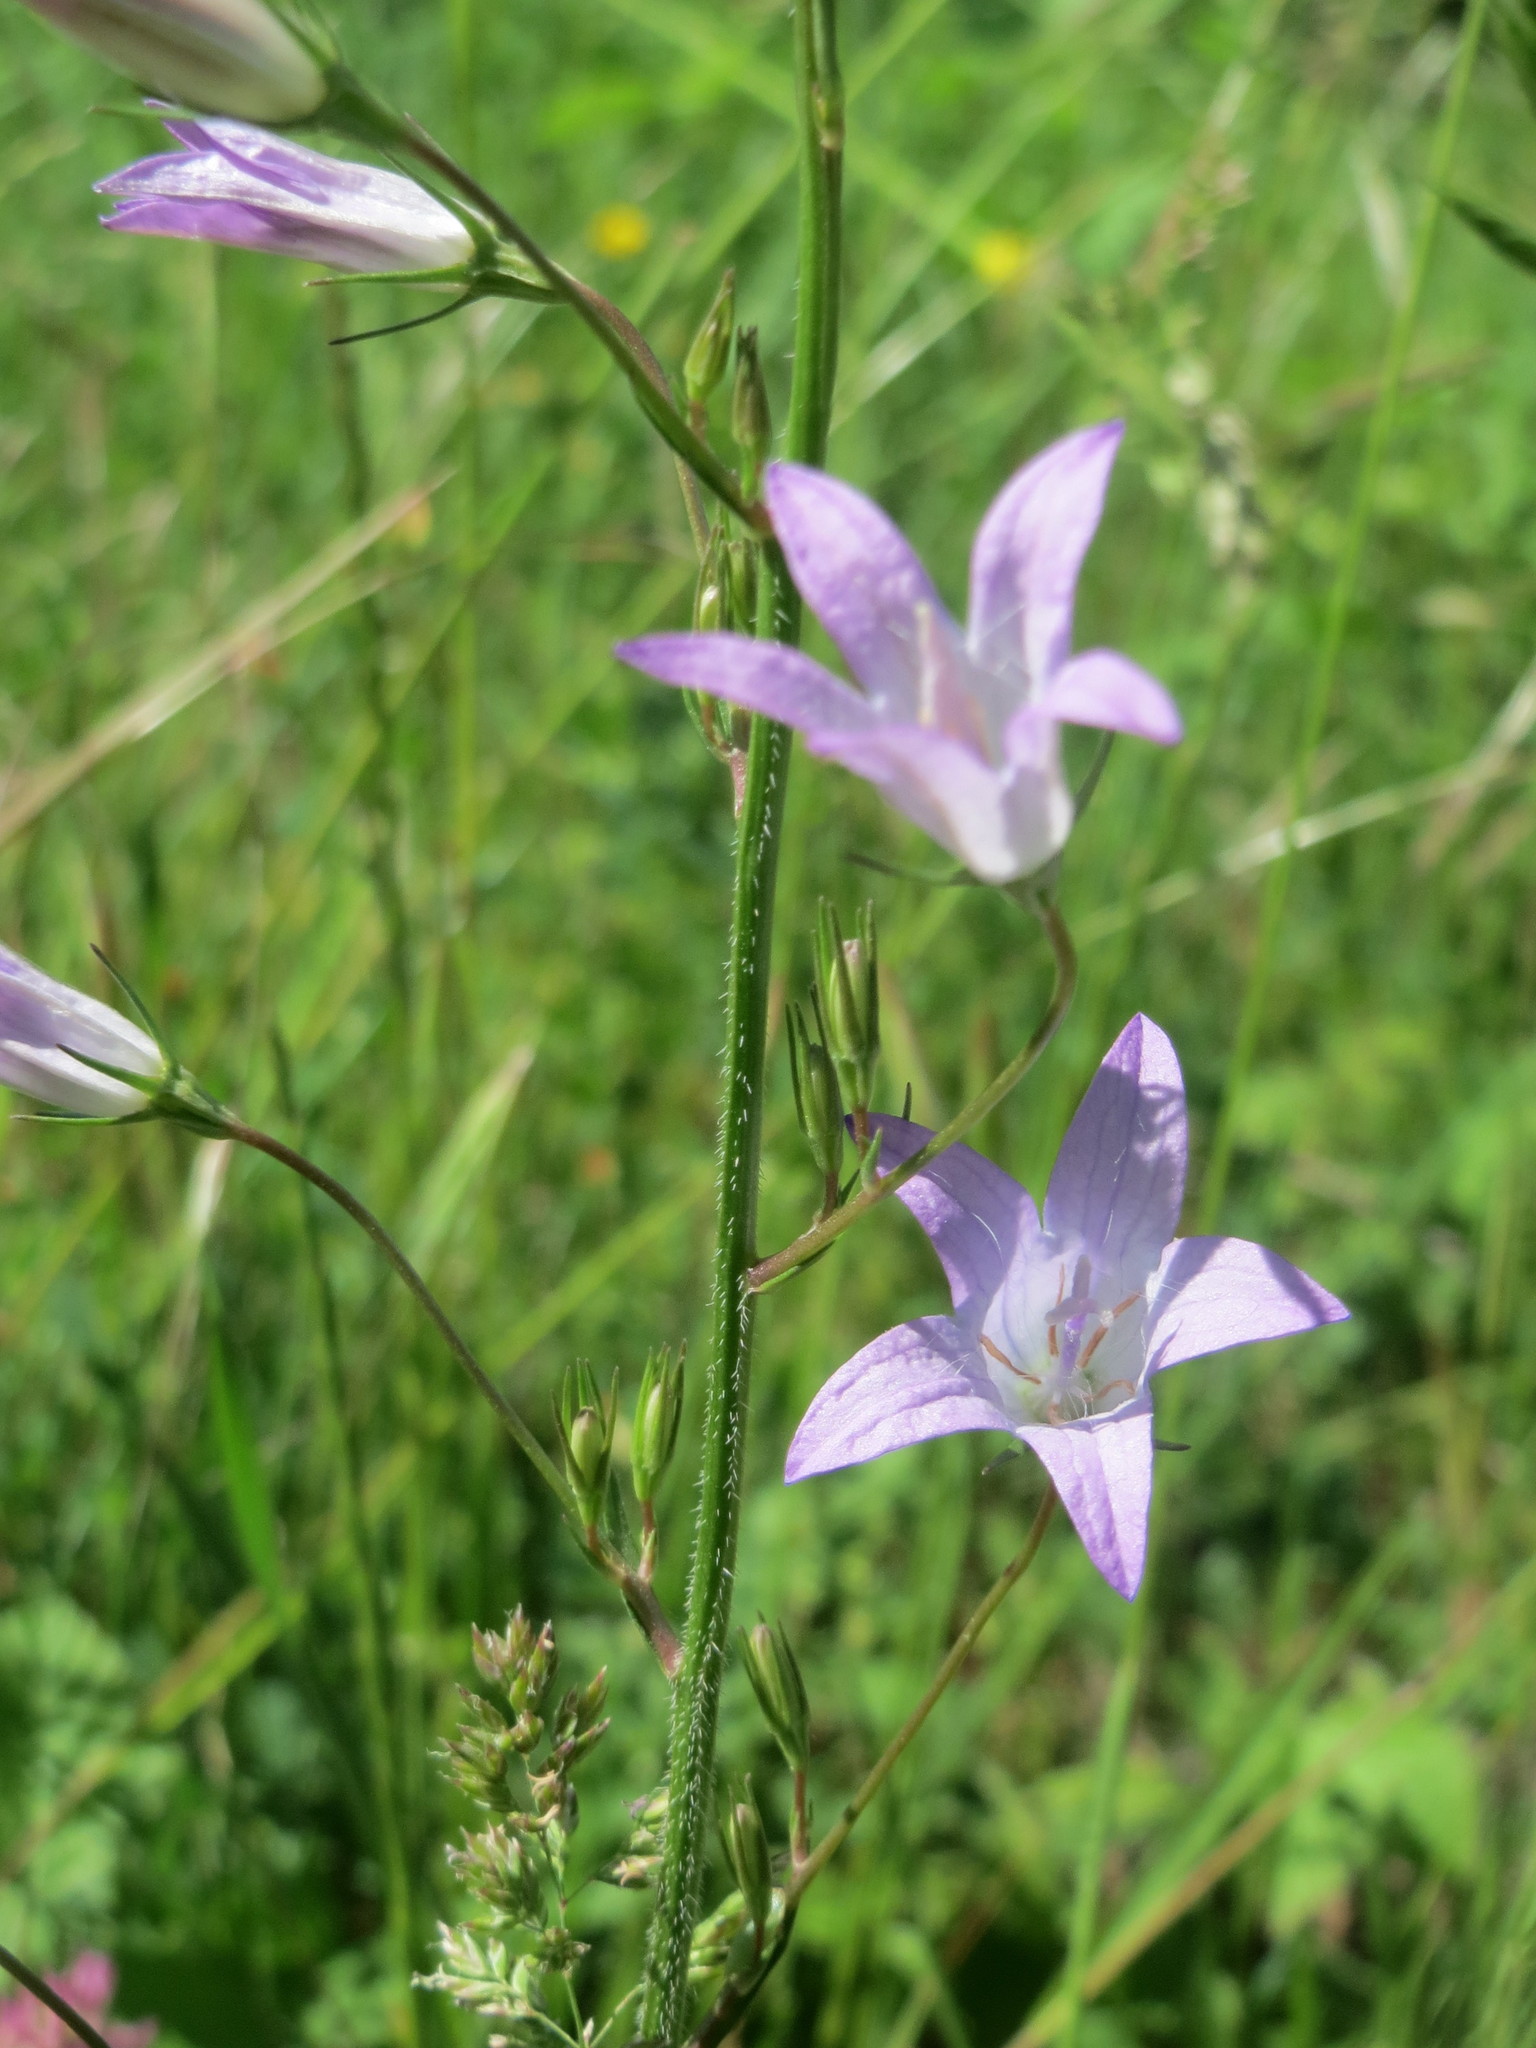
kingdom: Plantae
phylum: Tracheophyta
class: Magnoliopsida
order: Asterales
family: Campanulaceae
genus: Campanula
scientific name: Campanula rapunculus
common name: Rampion bellflower
